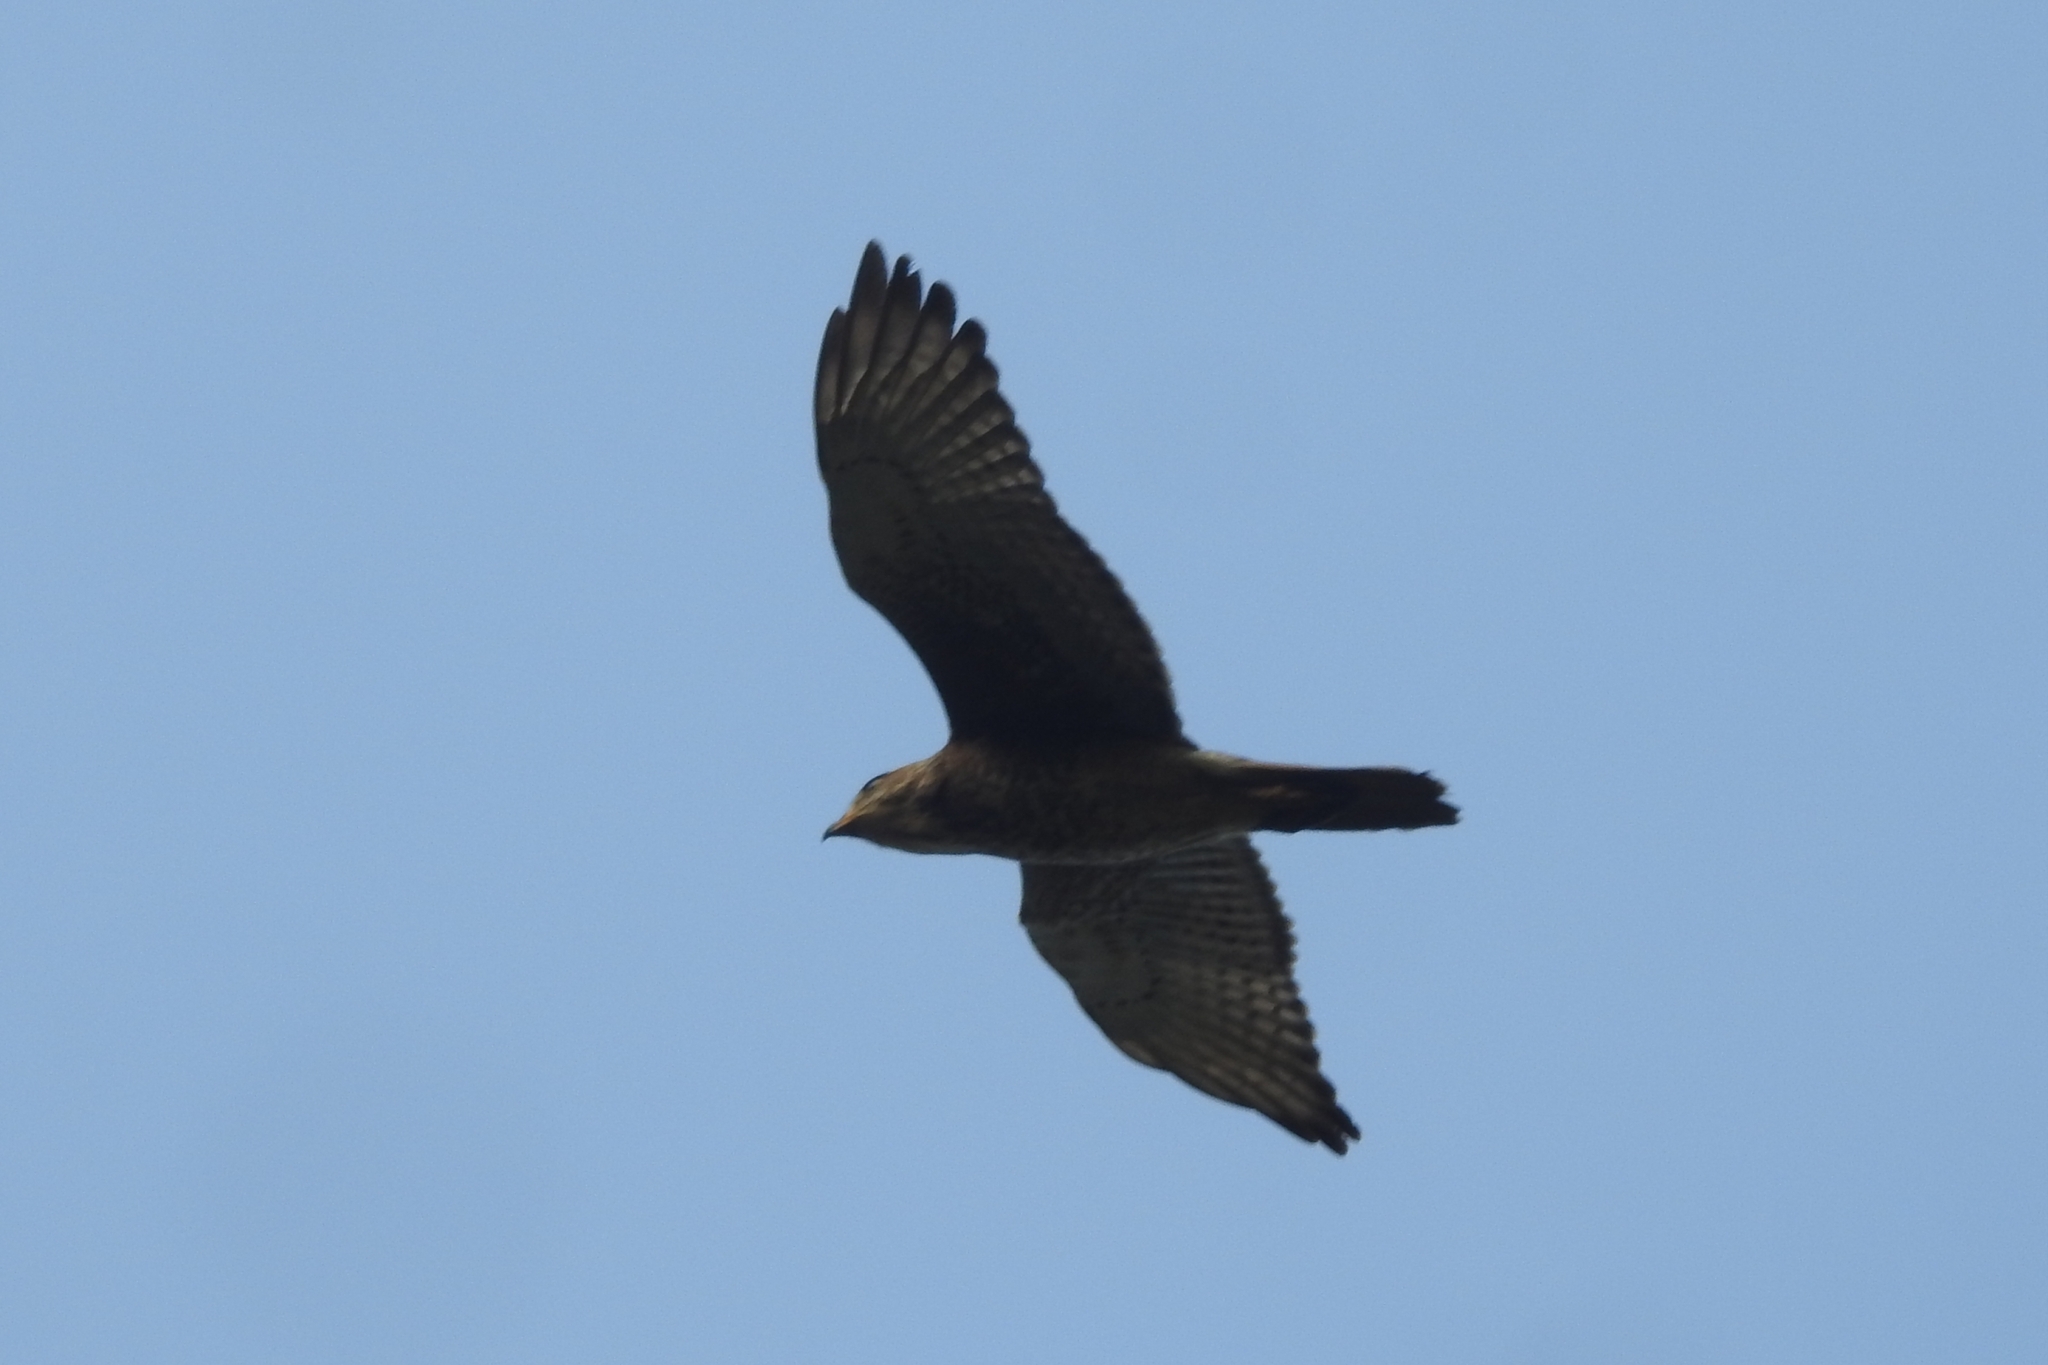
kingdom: Animalia
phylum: Chordata
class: Aves
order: Accipitriformes
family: Accipitridae
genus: Butastur
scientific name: Butastur teesa
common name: White-eyed buzzard
